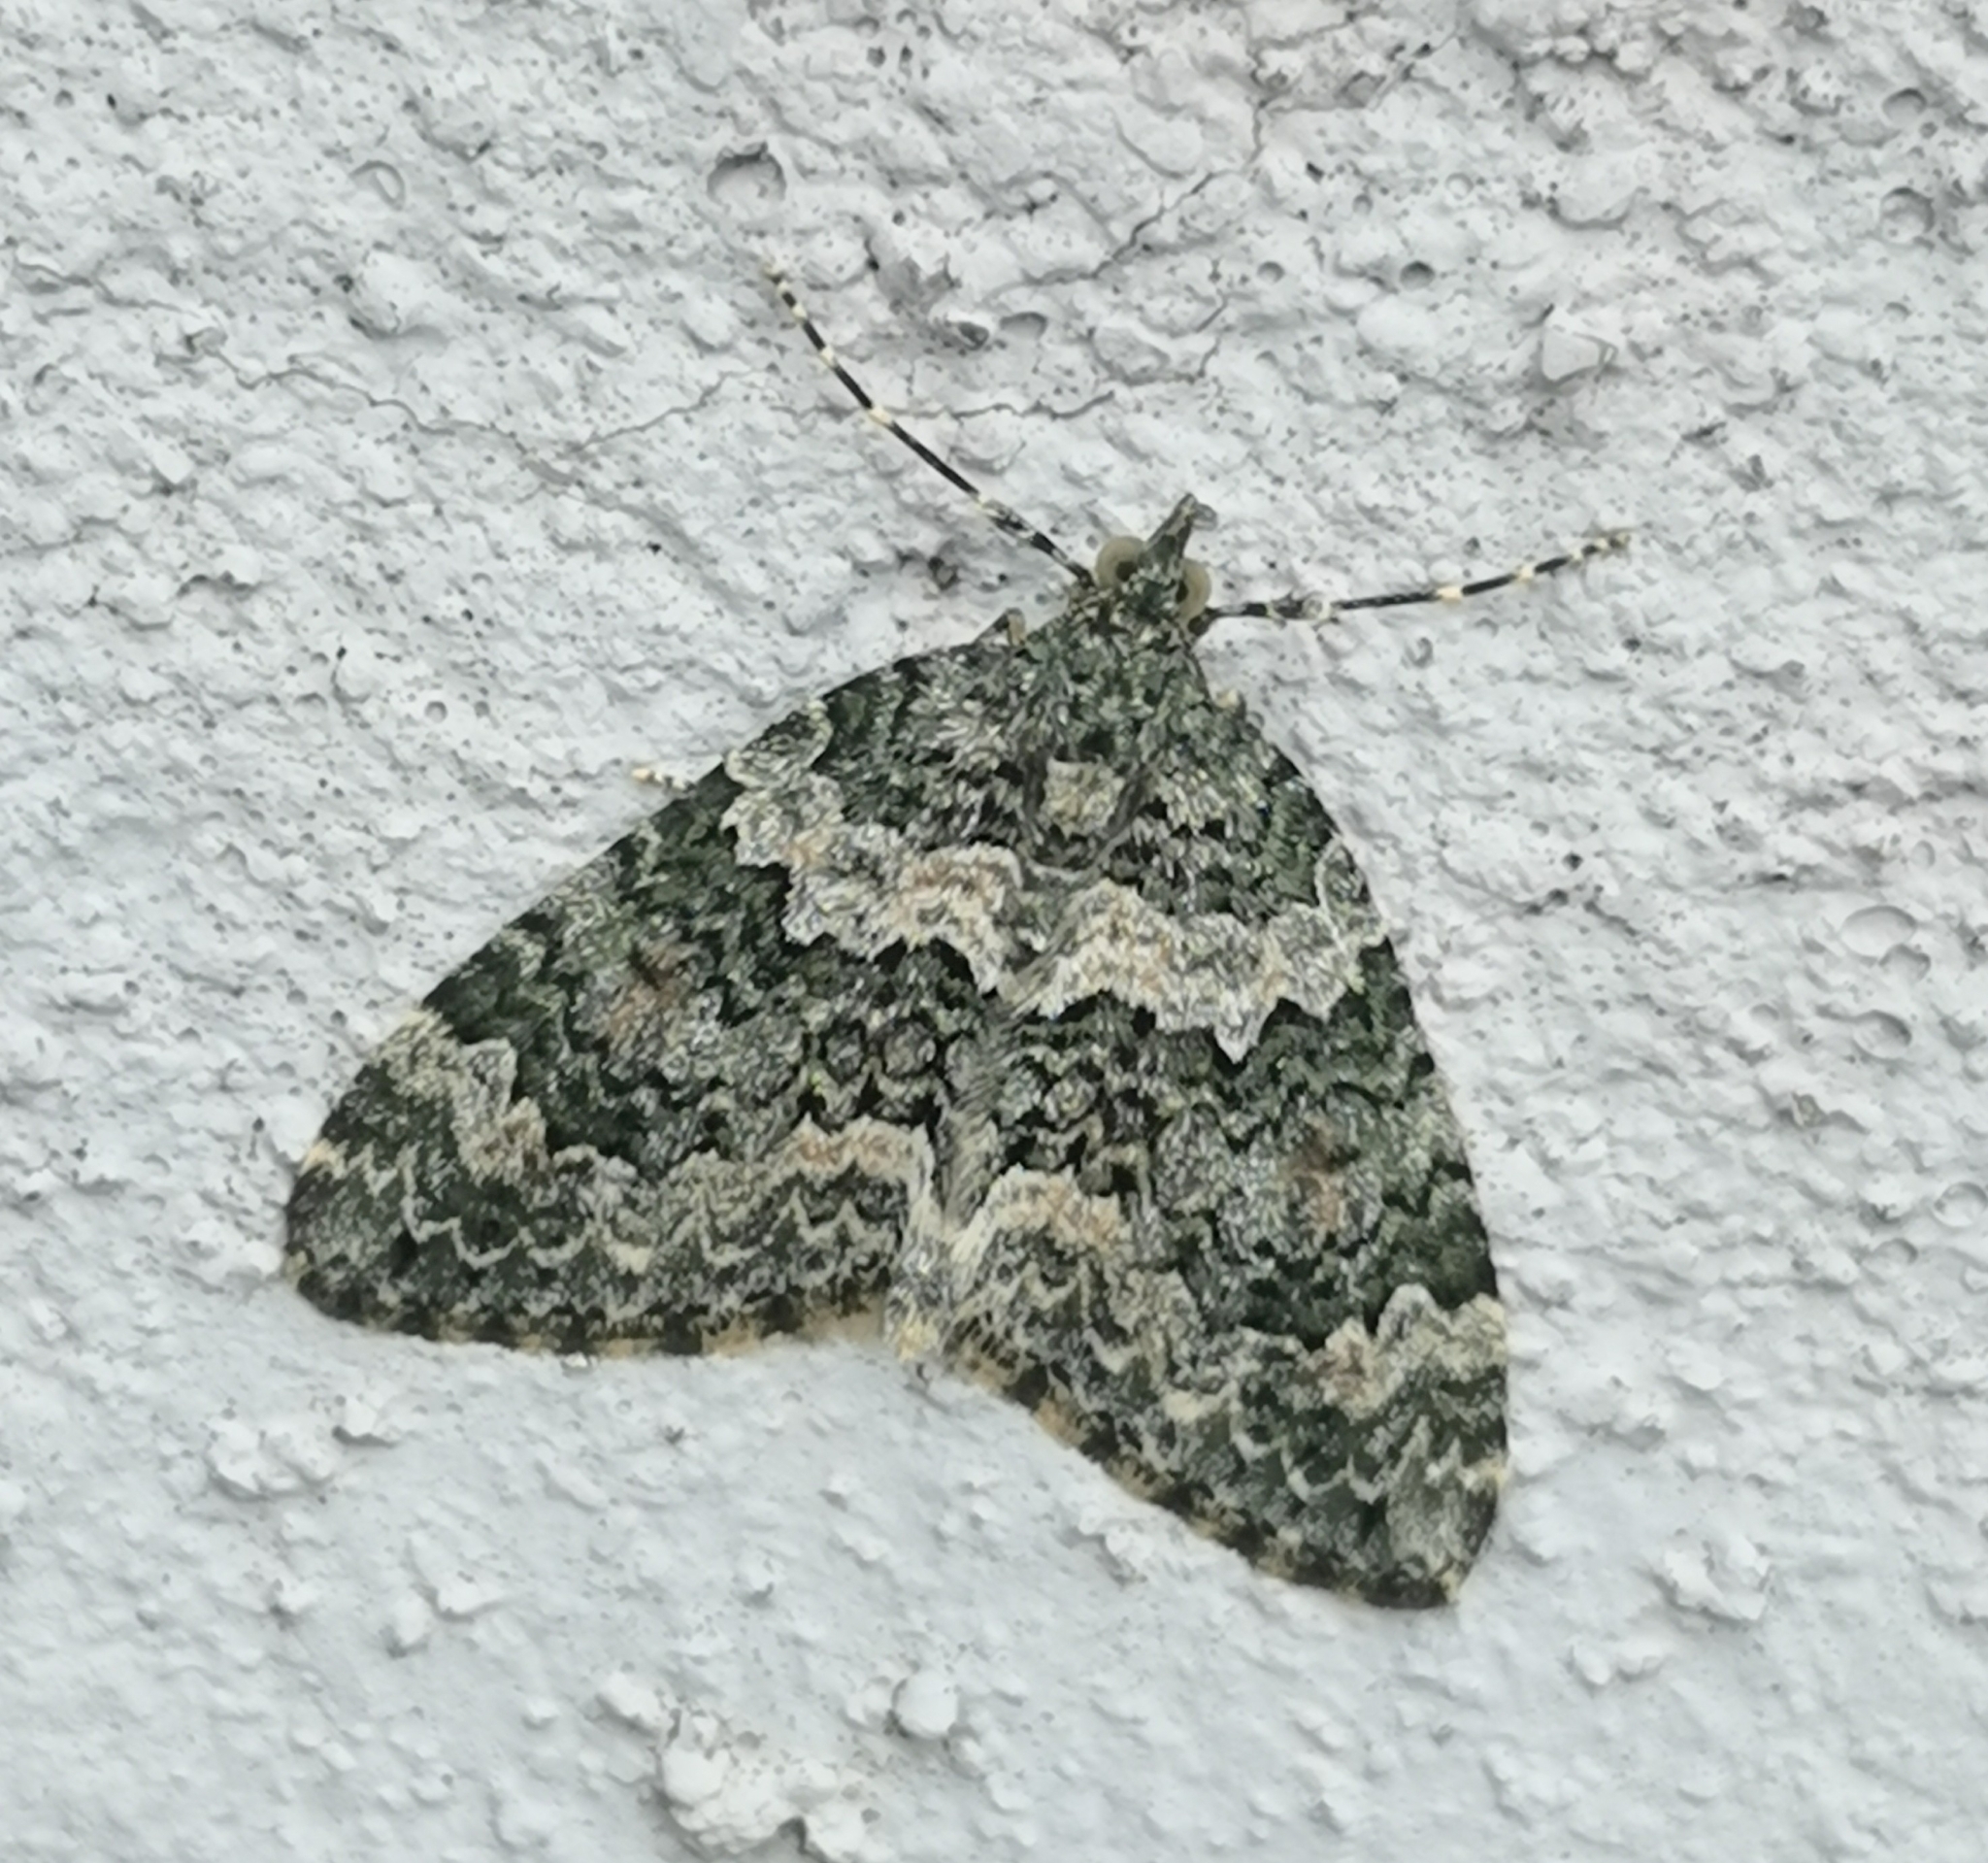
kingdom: Animalia
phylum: Arthropoda
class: Insecta
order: Lepidoptera
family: Geometridae
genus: Chloroclysta
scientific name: Chloroclysta miata
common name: Autumn green carpet
